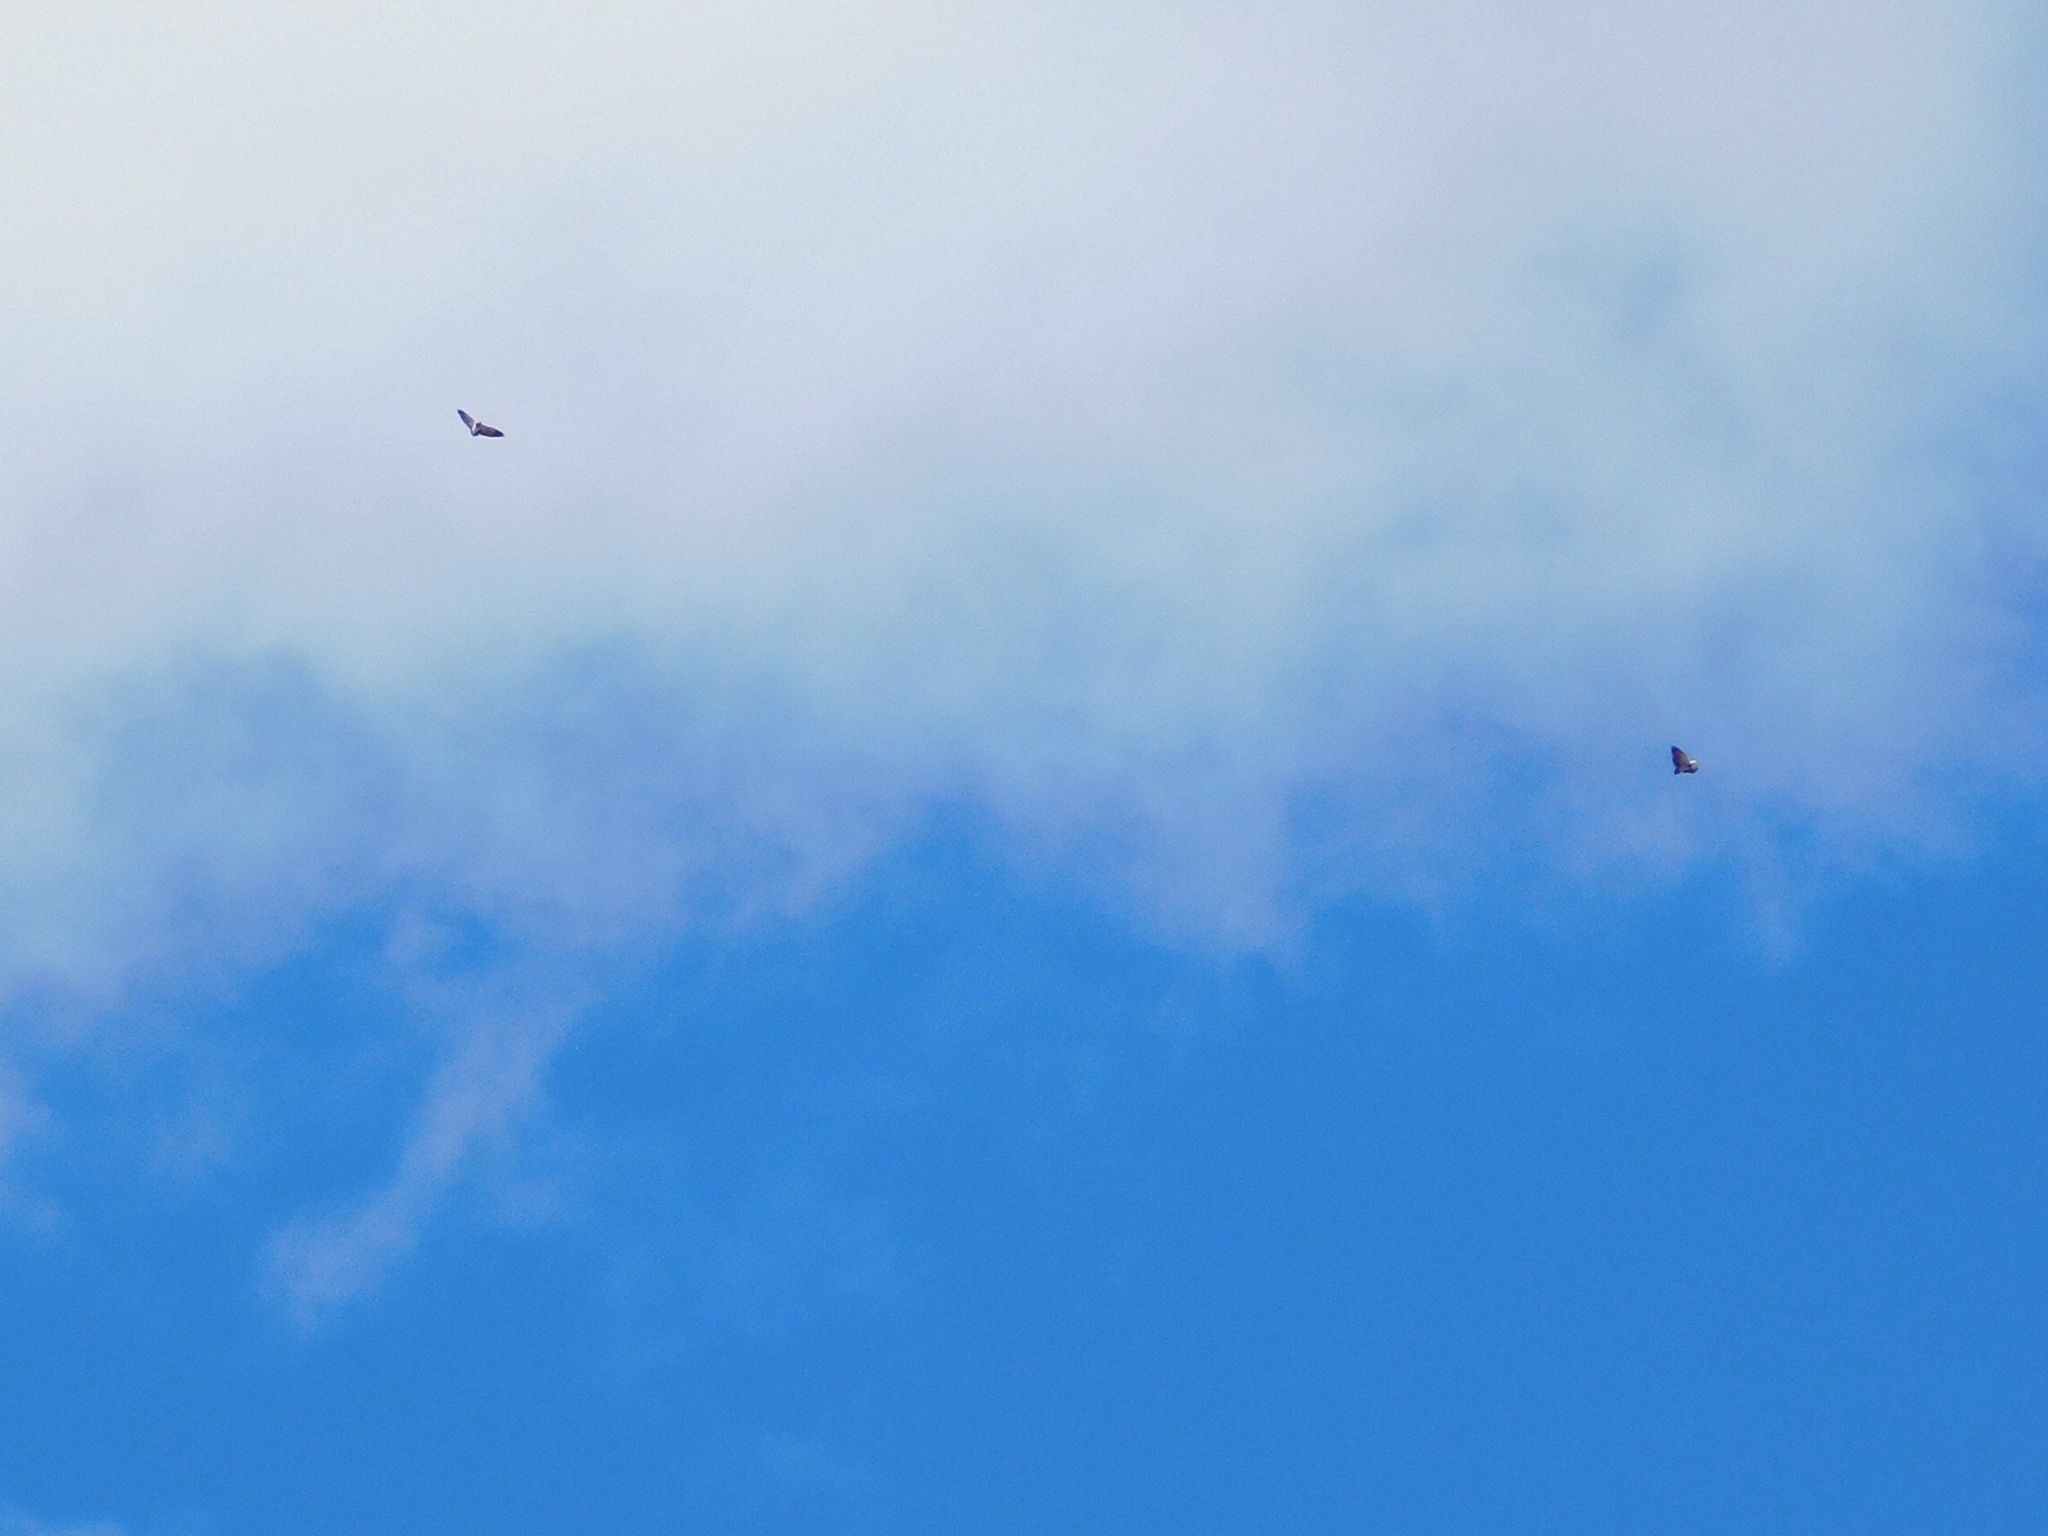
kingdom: Animalia
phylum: Chordata
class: Aves
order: Accipitriformes
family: Accipitridae
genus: Geranoaetus
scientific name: Geranoaetus melanoleucus
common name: Black-chested buzzard-eagle
